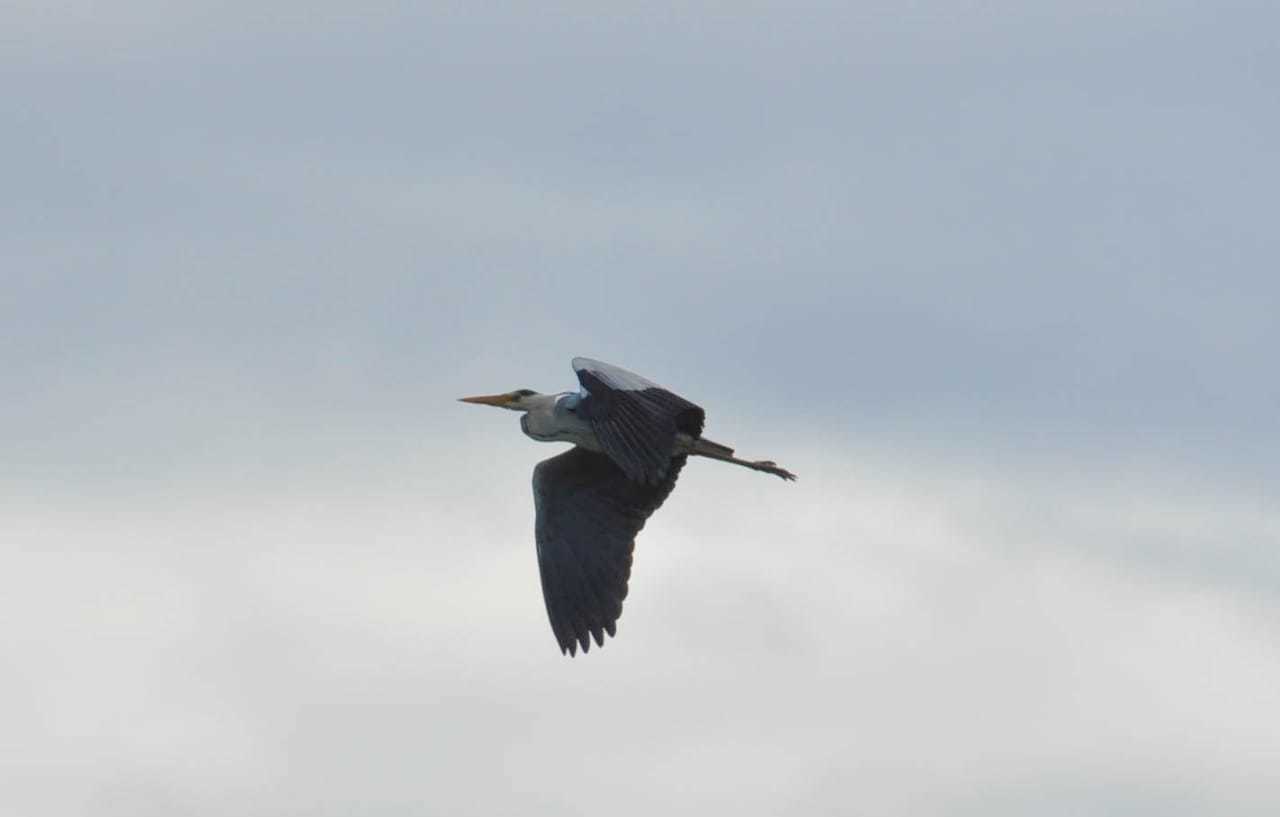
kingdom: Animalia
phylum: Chordata
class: Aves
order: Pelecaniformes
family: Ardeidae
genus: Ardea
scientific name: Ardea cinerea
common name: Grey heron
